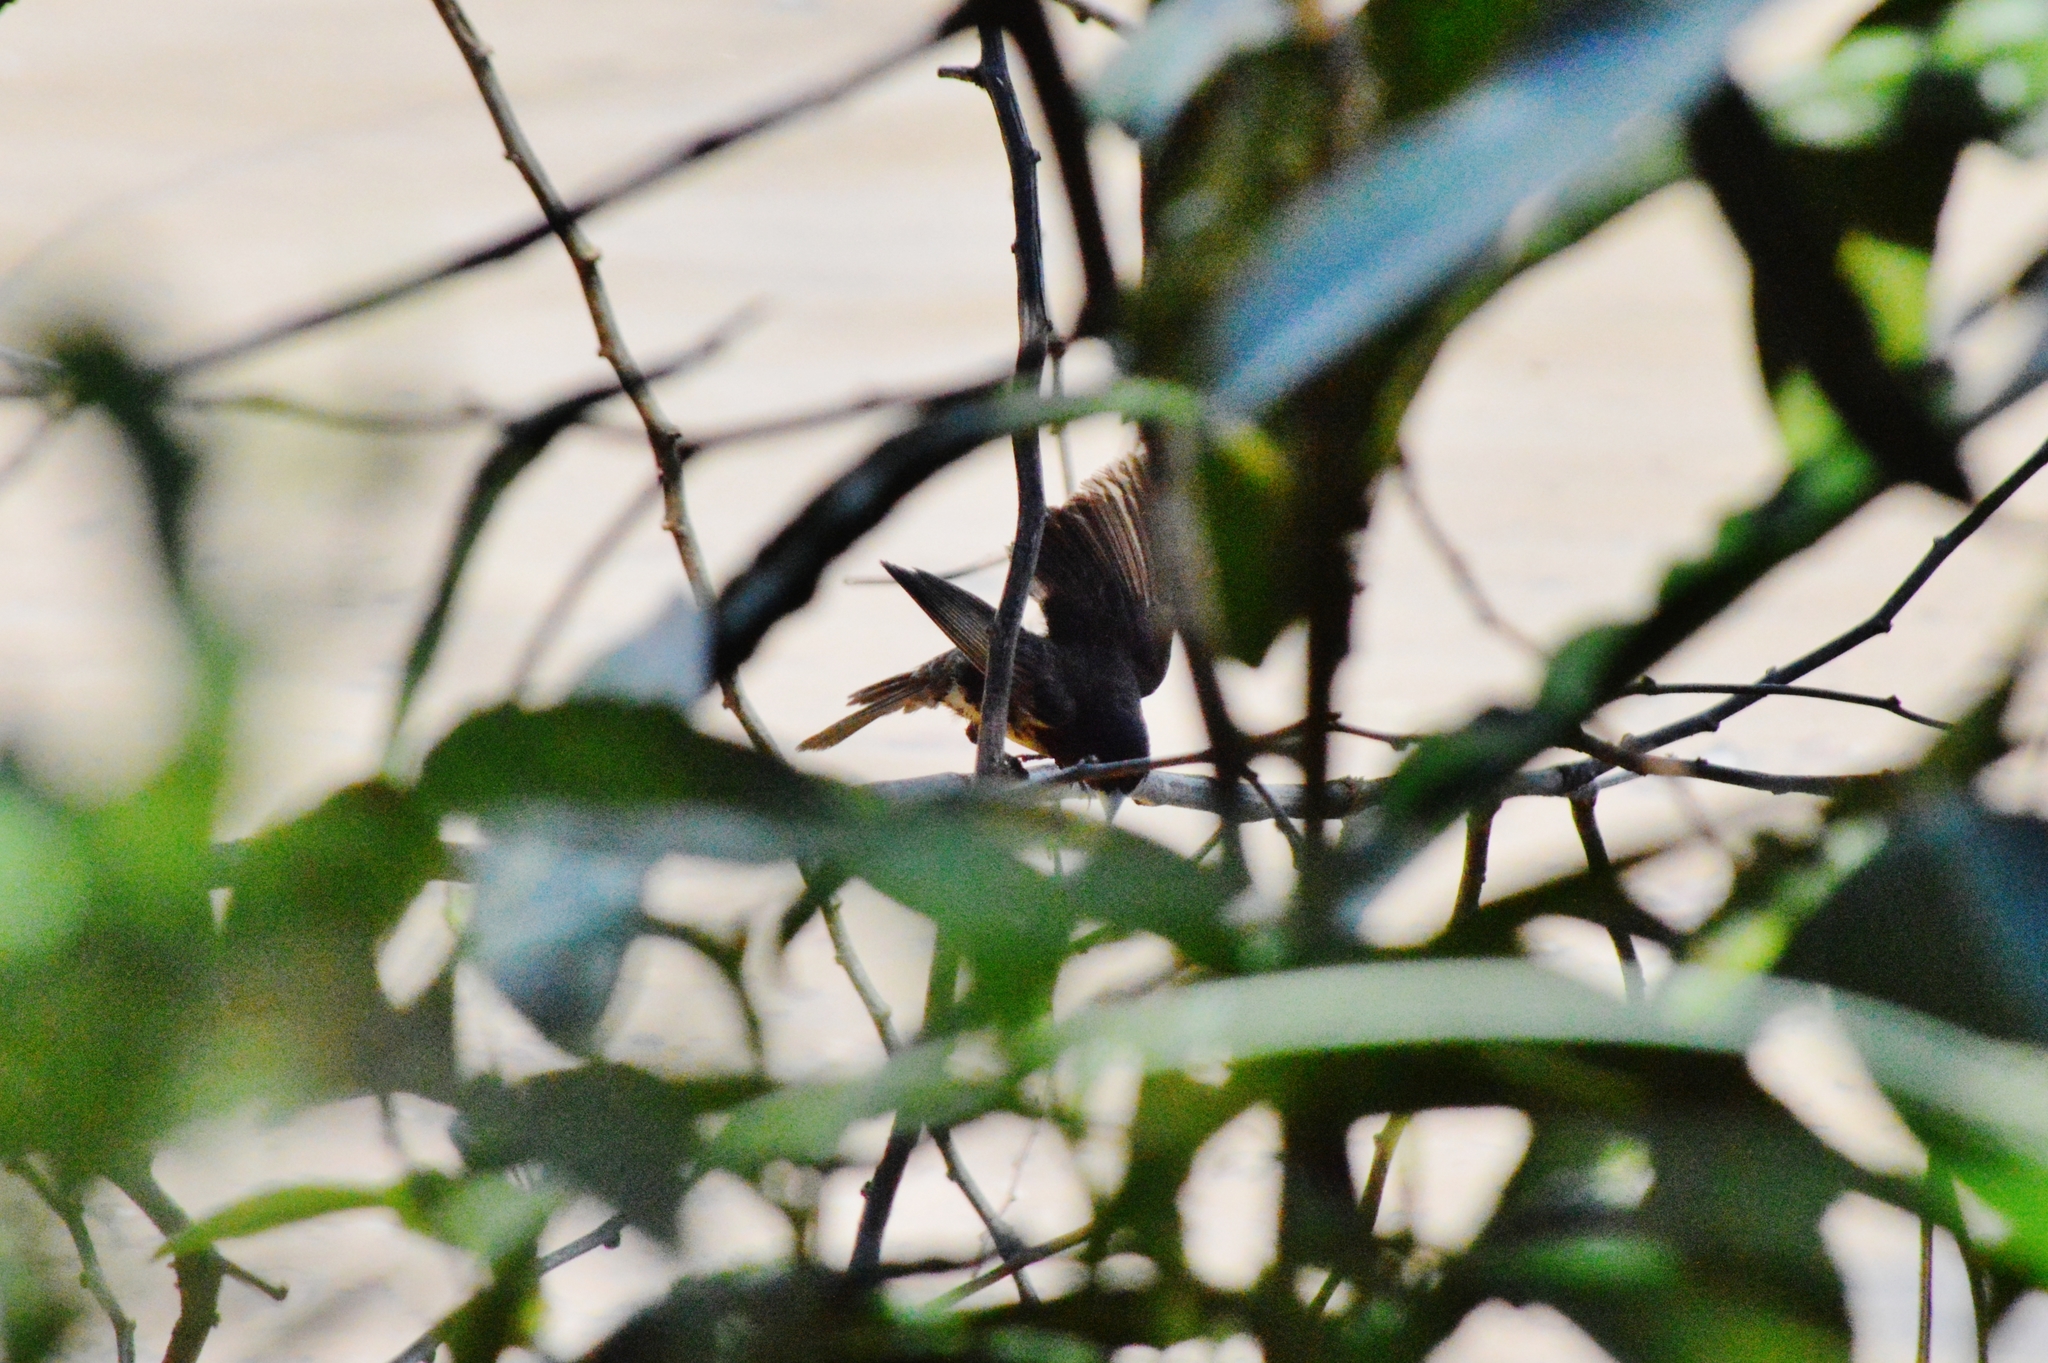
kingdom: Animalia
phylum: Chordata
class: Aves
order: Passeriformes
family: Thraupidae
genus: Sporophila
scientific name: Sporophila nigricollis
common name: Yellow-bellied seedeater
